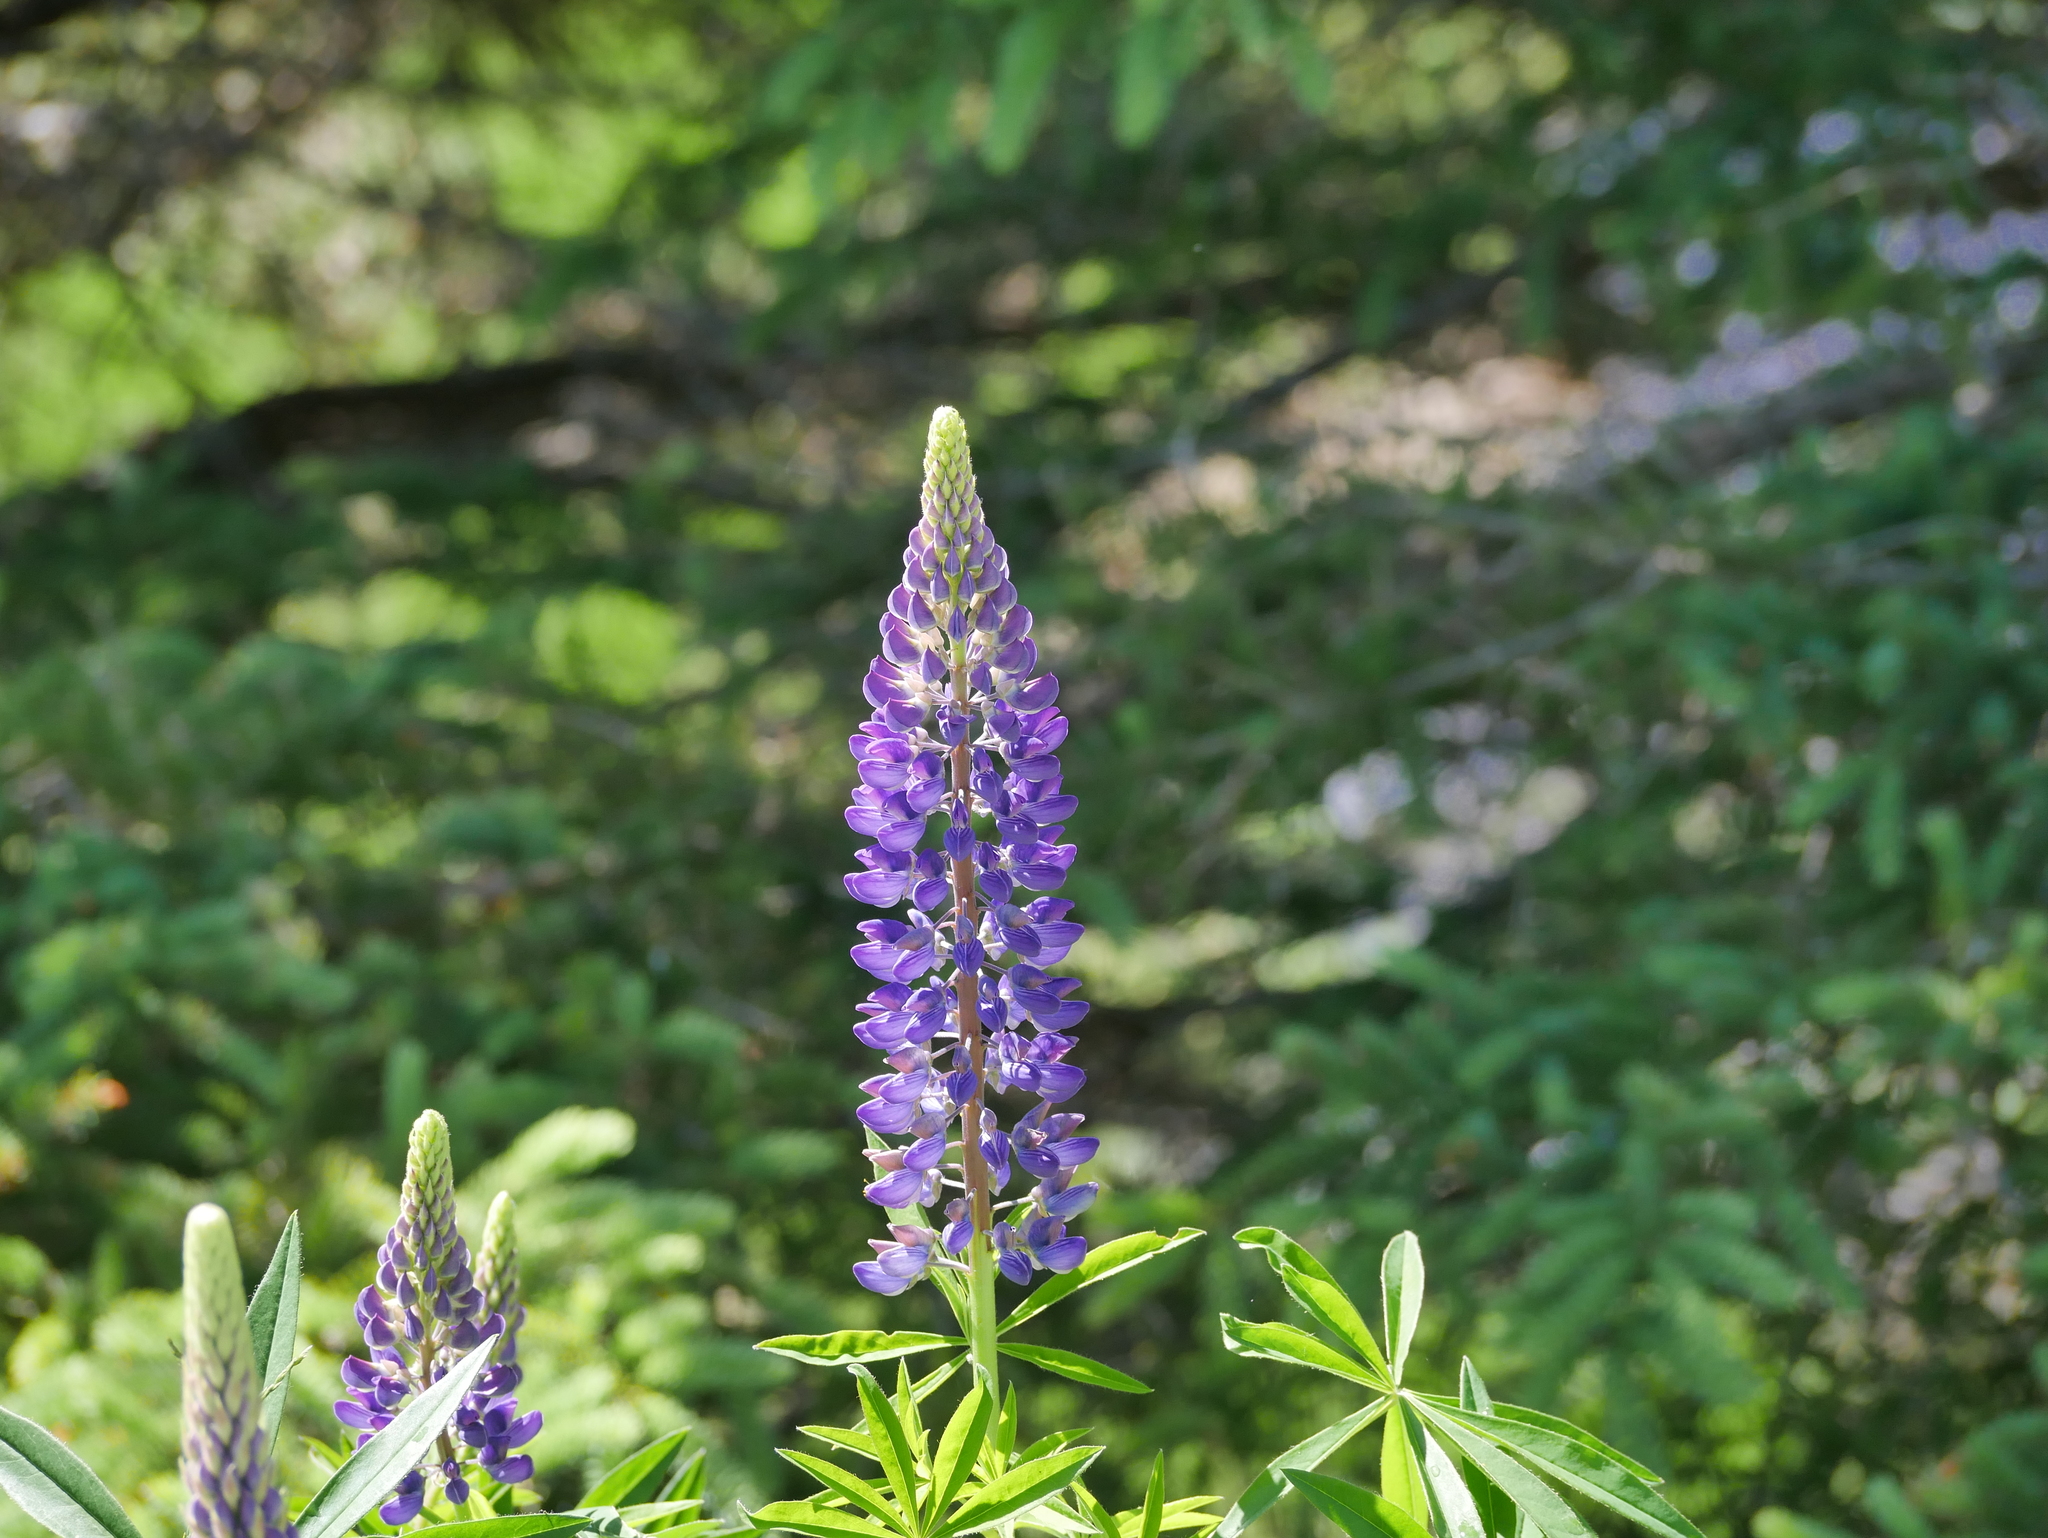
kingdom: Plantae
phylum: Tracheophyta
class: Magnoliopsida
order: Fabales
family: Fabaceae
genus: Lupinus
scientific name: Lupinus polyphyllus
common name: Garden lupin
